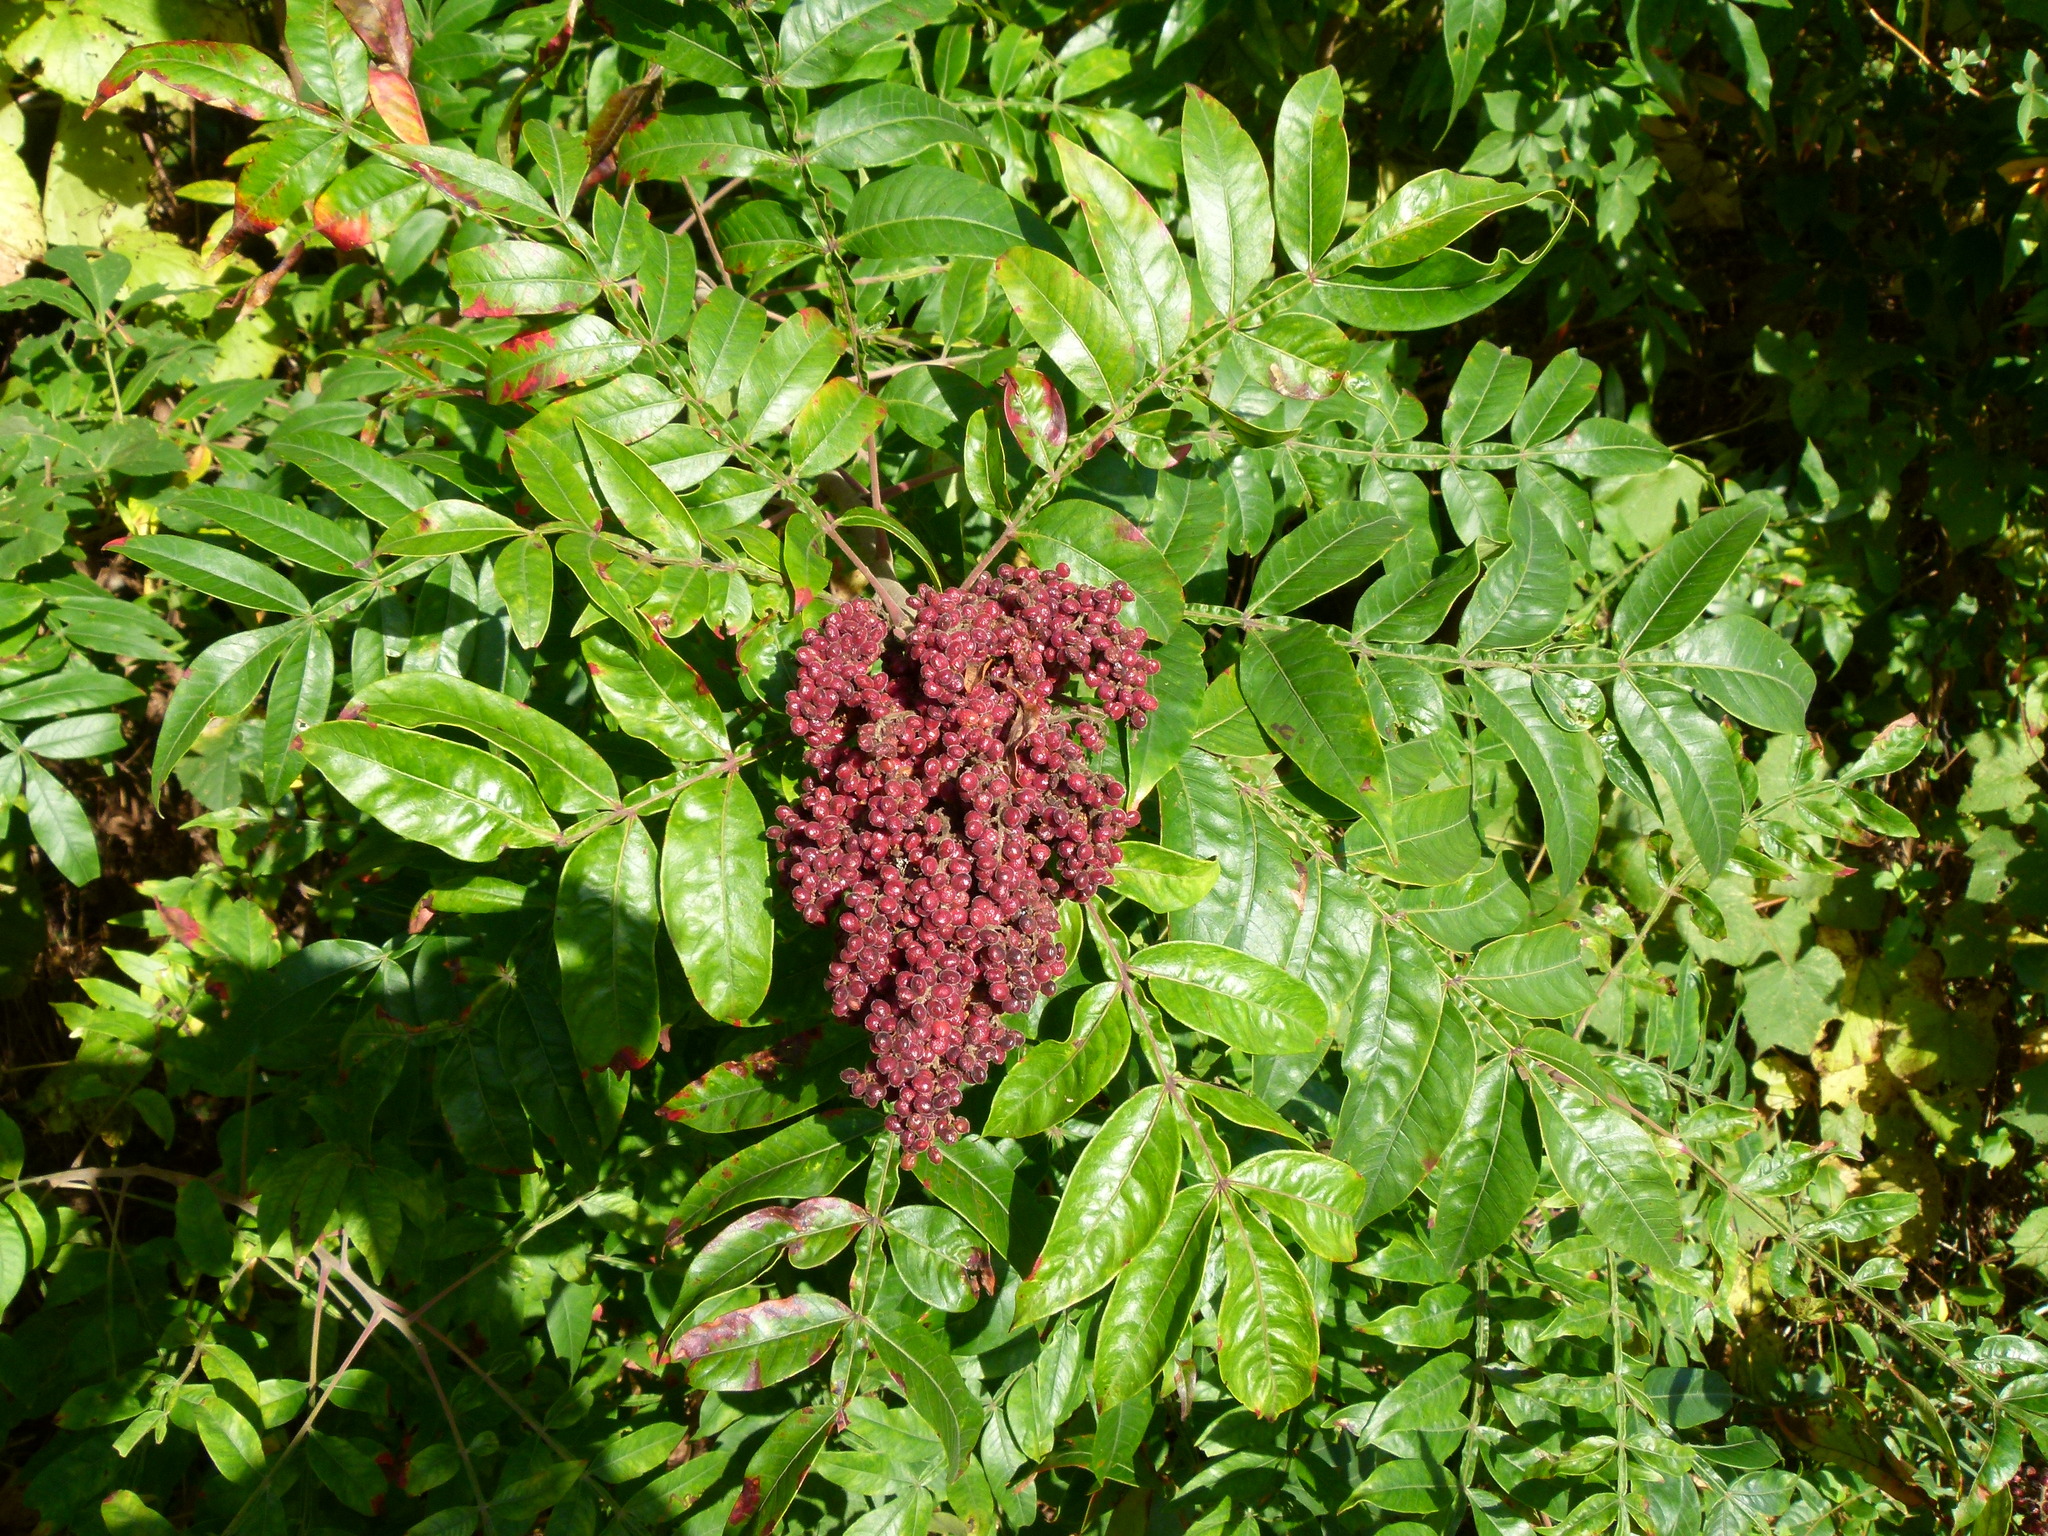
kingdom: Plantae
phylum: Tracheophyta
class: Magnoliopsida
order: Sapindales
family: Anacardiaceae
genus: Rhus
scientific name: Rhus copallina
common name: Shining sumac
